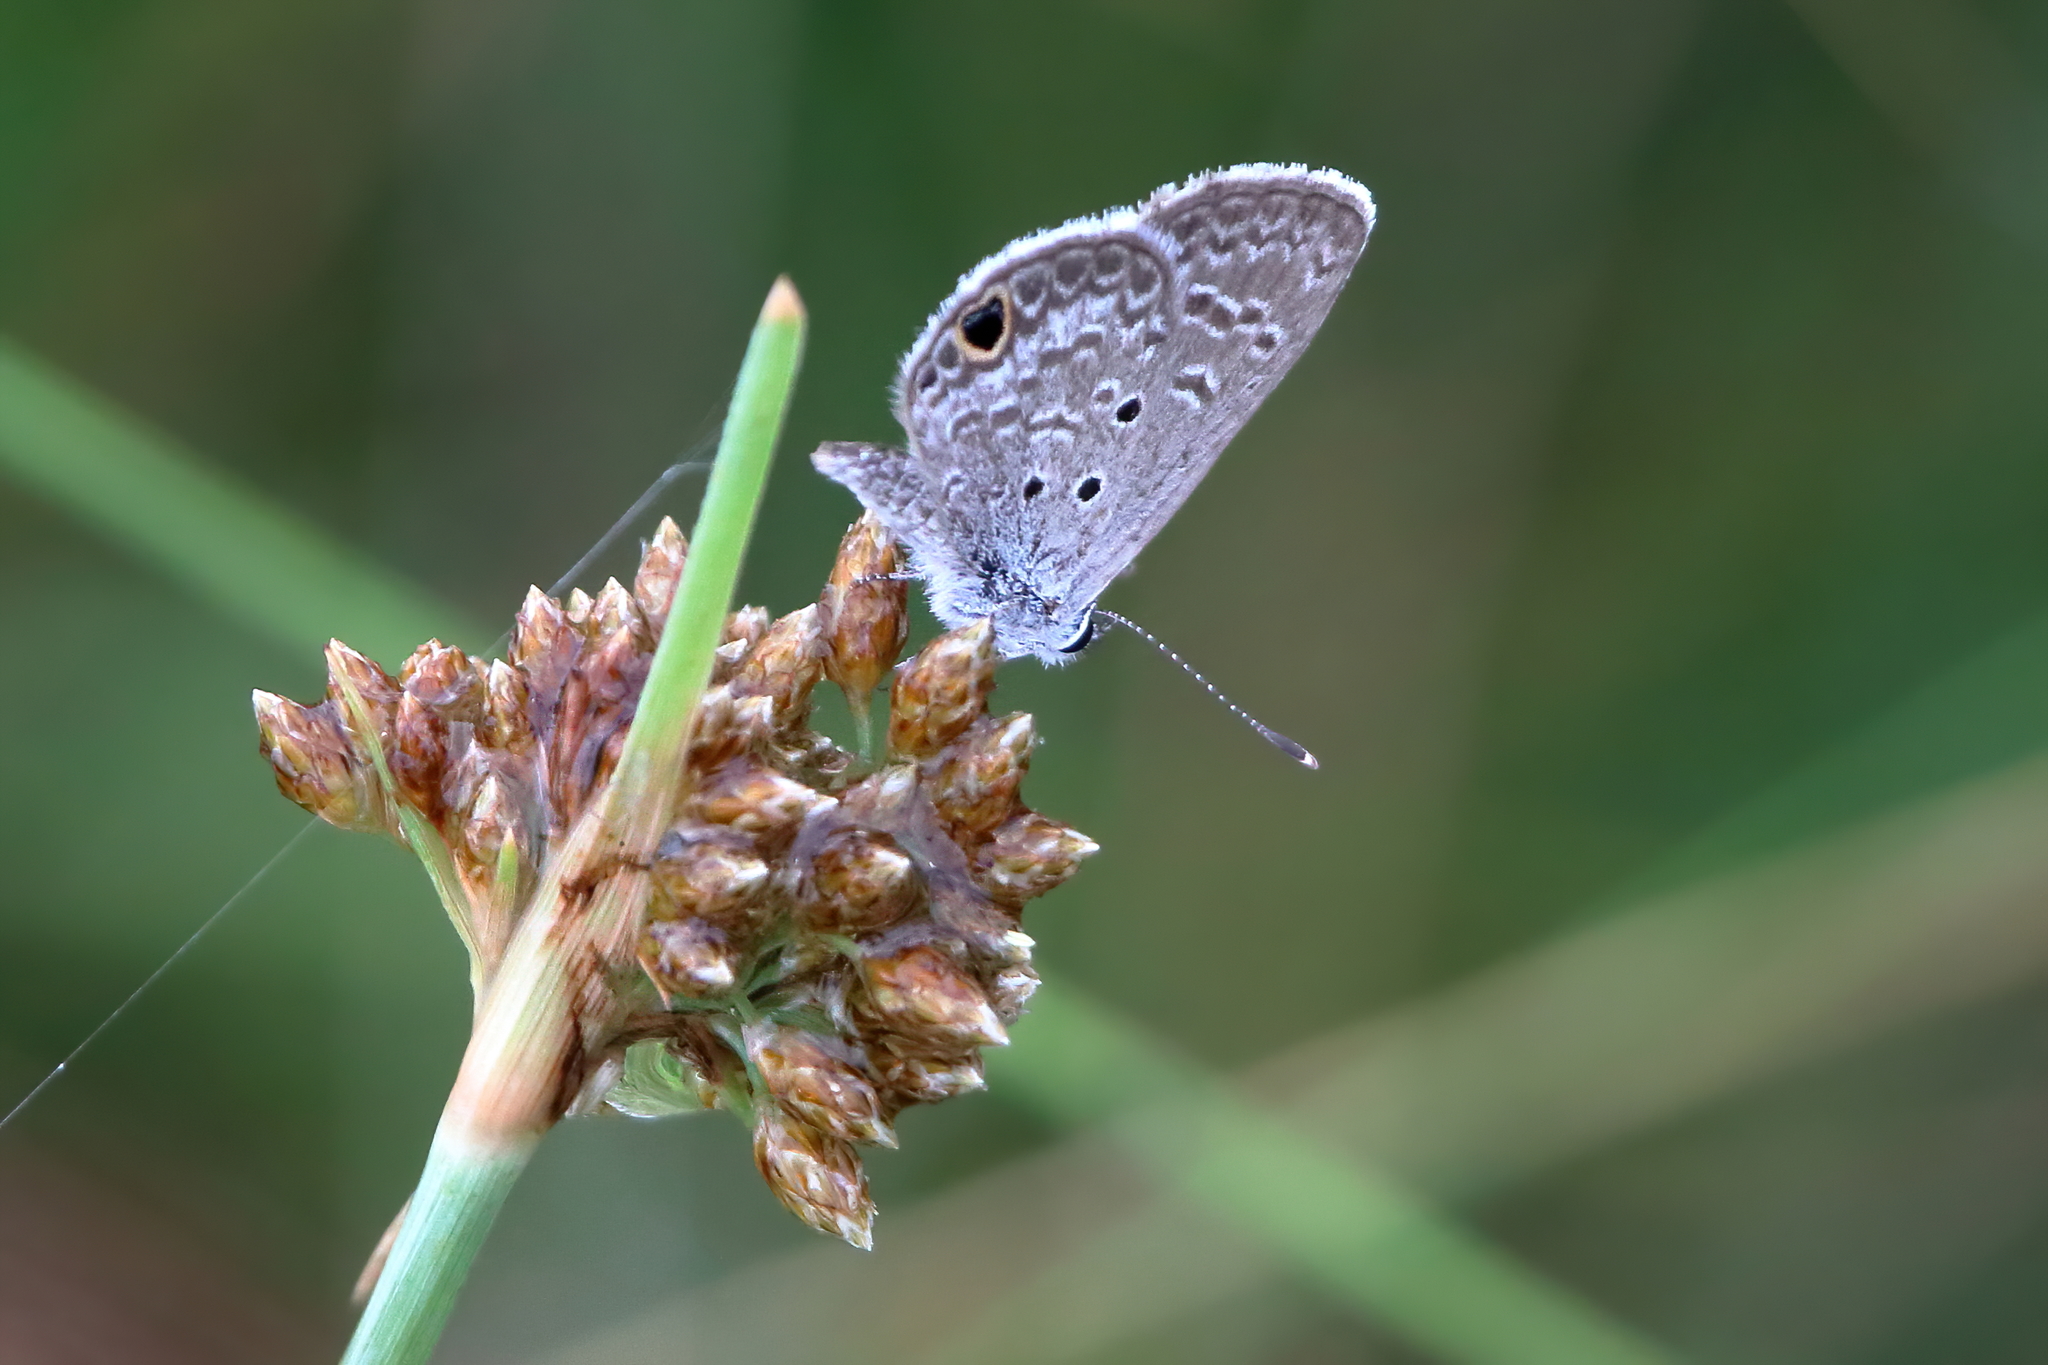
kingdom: Animalia
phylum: Arthropoda
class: Insecta
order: Lepidoptera
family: Lycaenidae
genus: Hemiargus
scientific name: Hemiargus ceraunus
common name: Ceraunus blue
